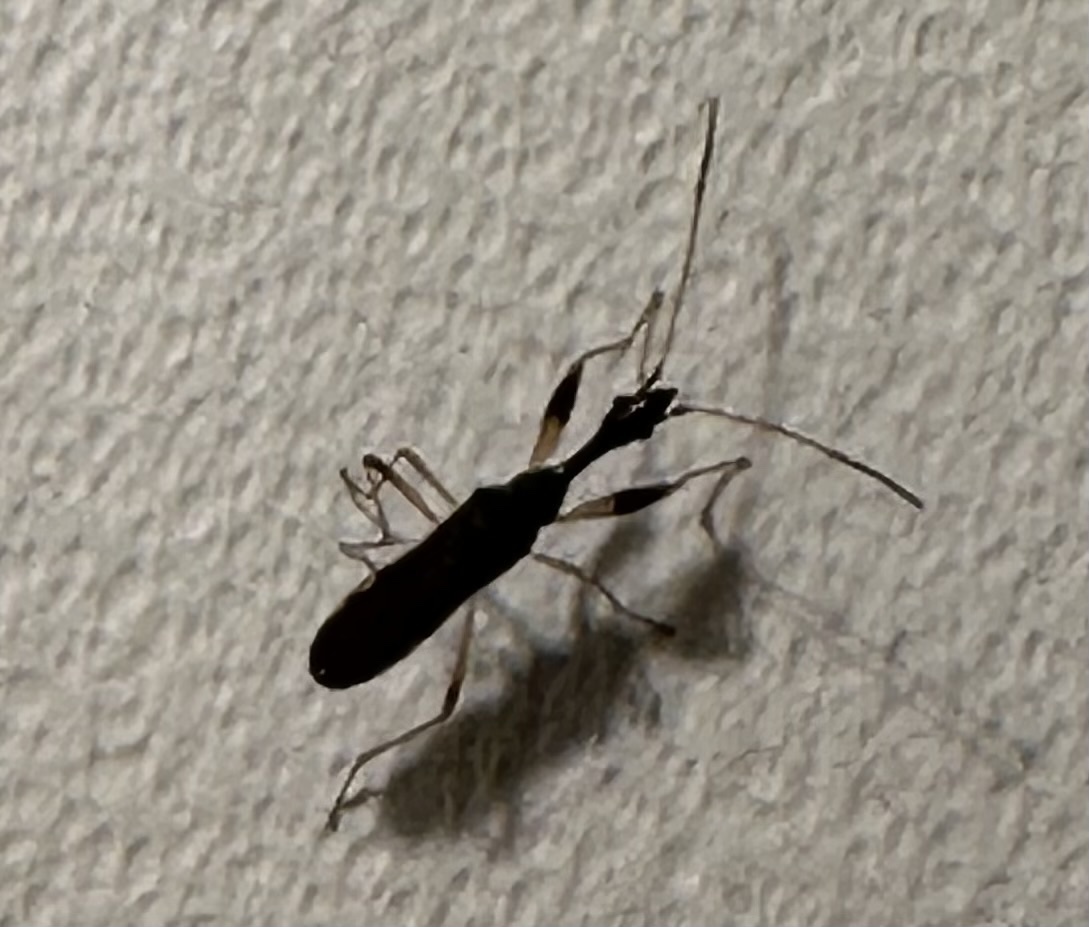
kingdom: Animalia
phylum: Arthropoda
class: Insecta
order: Hemiptera
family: Rhyparochromidae
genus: Myodocha
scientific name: Myodocha serripes
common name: Long-necked seed bug
